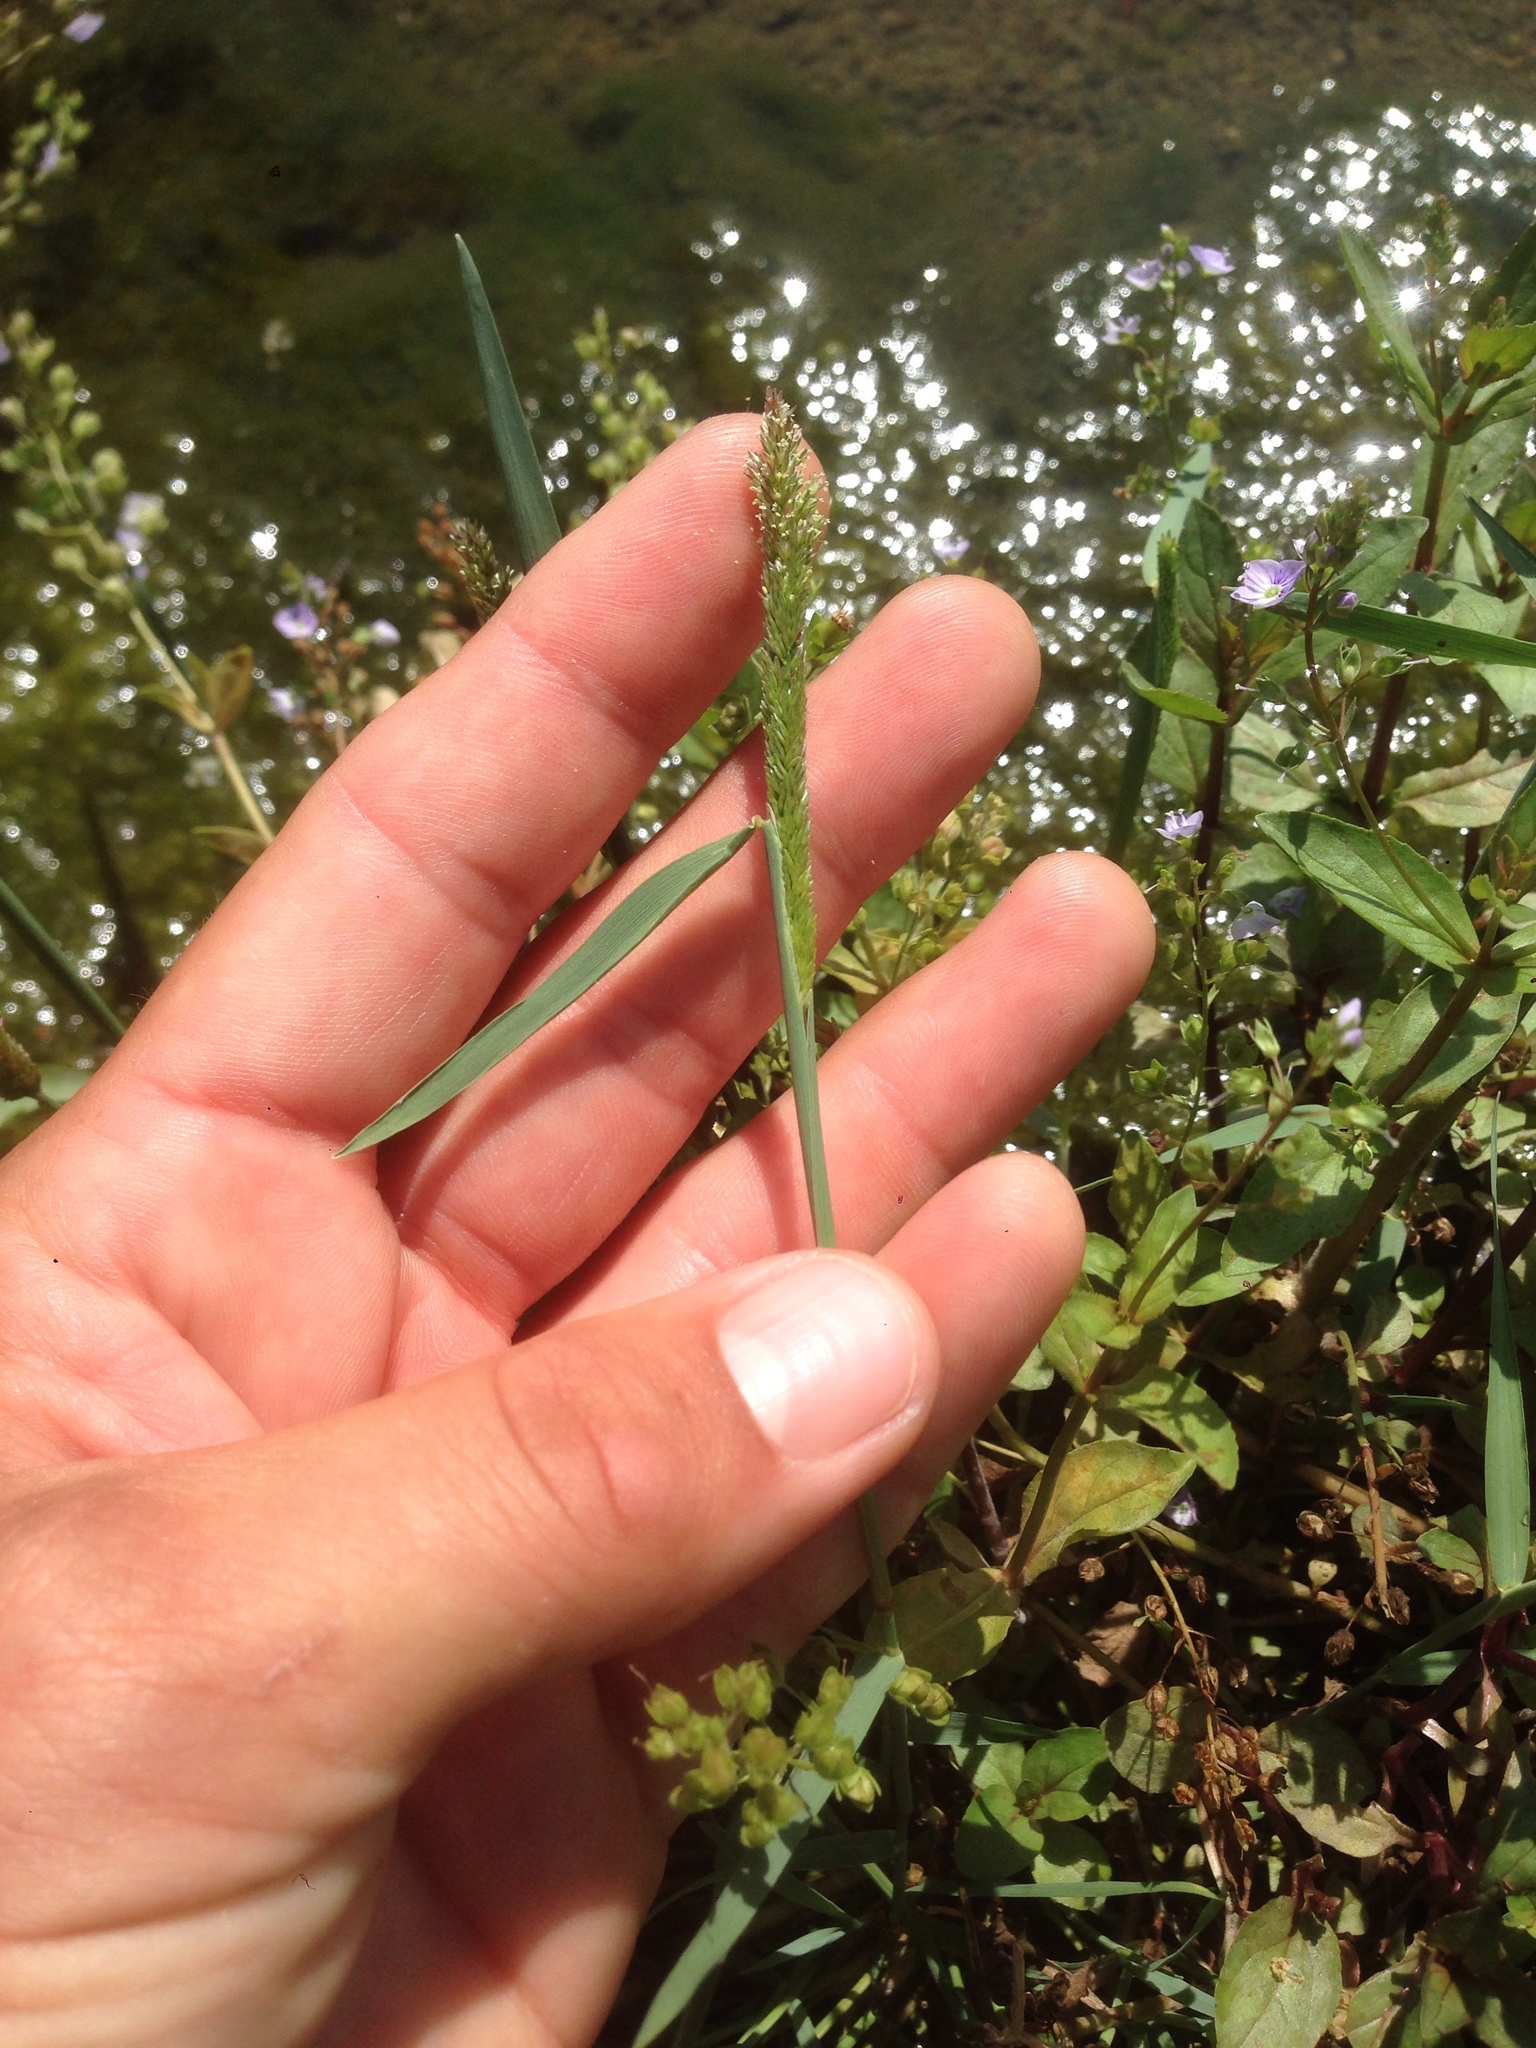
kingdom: Plantae
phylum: Tracheophyta
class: Liliopsida
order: Poales
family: Poaceae
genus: Polypogon
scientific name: Polypogon viridis
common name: Water bent
